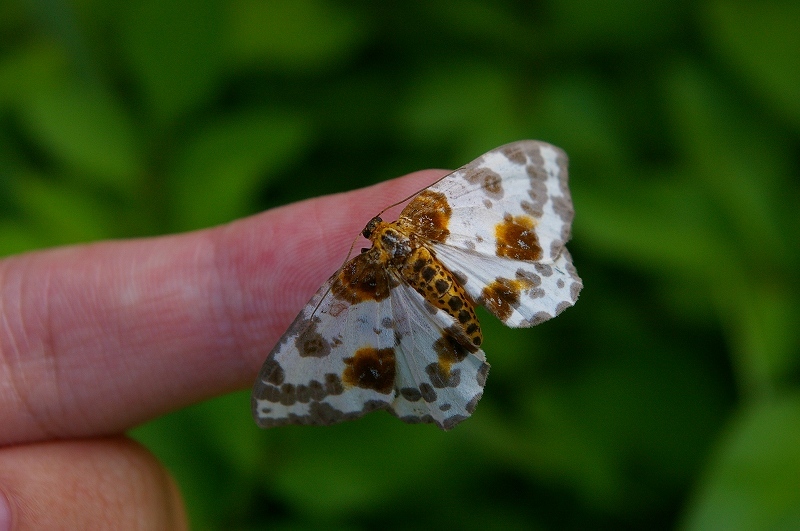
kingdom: Animalia
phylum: Arthropoda
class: Insecta
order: Lepidoptera
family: Geometridae
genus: Abraxas
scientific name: Abraxas niphonibia
